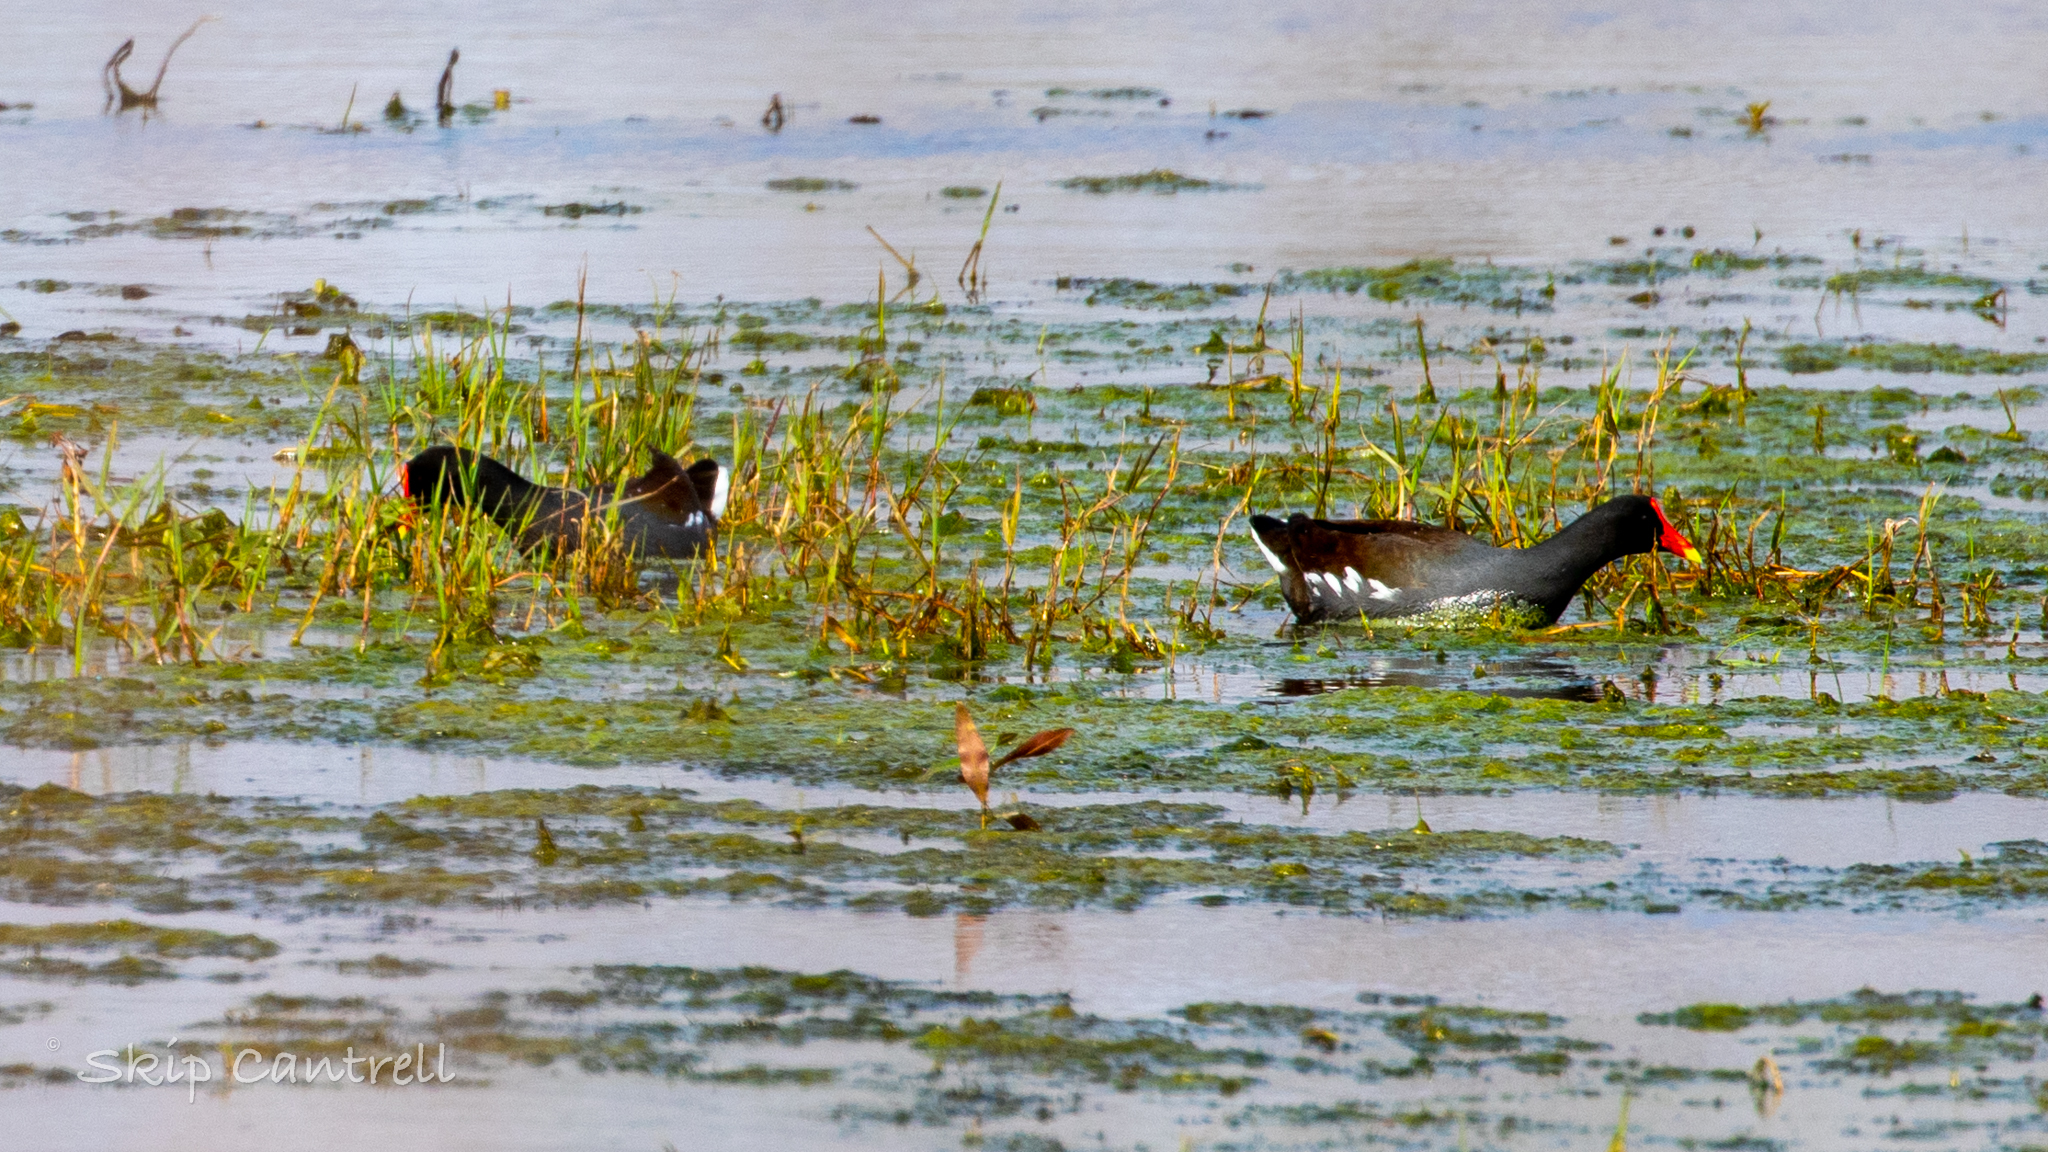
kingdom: Animalia
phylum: Chordata
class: Aves
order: Gruiformes
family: Rallidae
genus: Gallinula
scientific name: Gallinula chloropus
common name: Common moorhen
